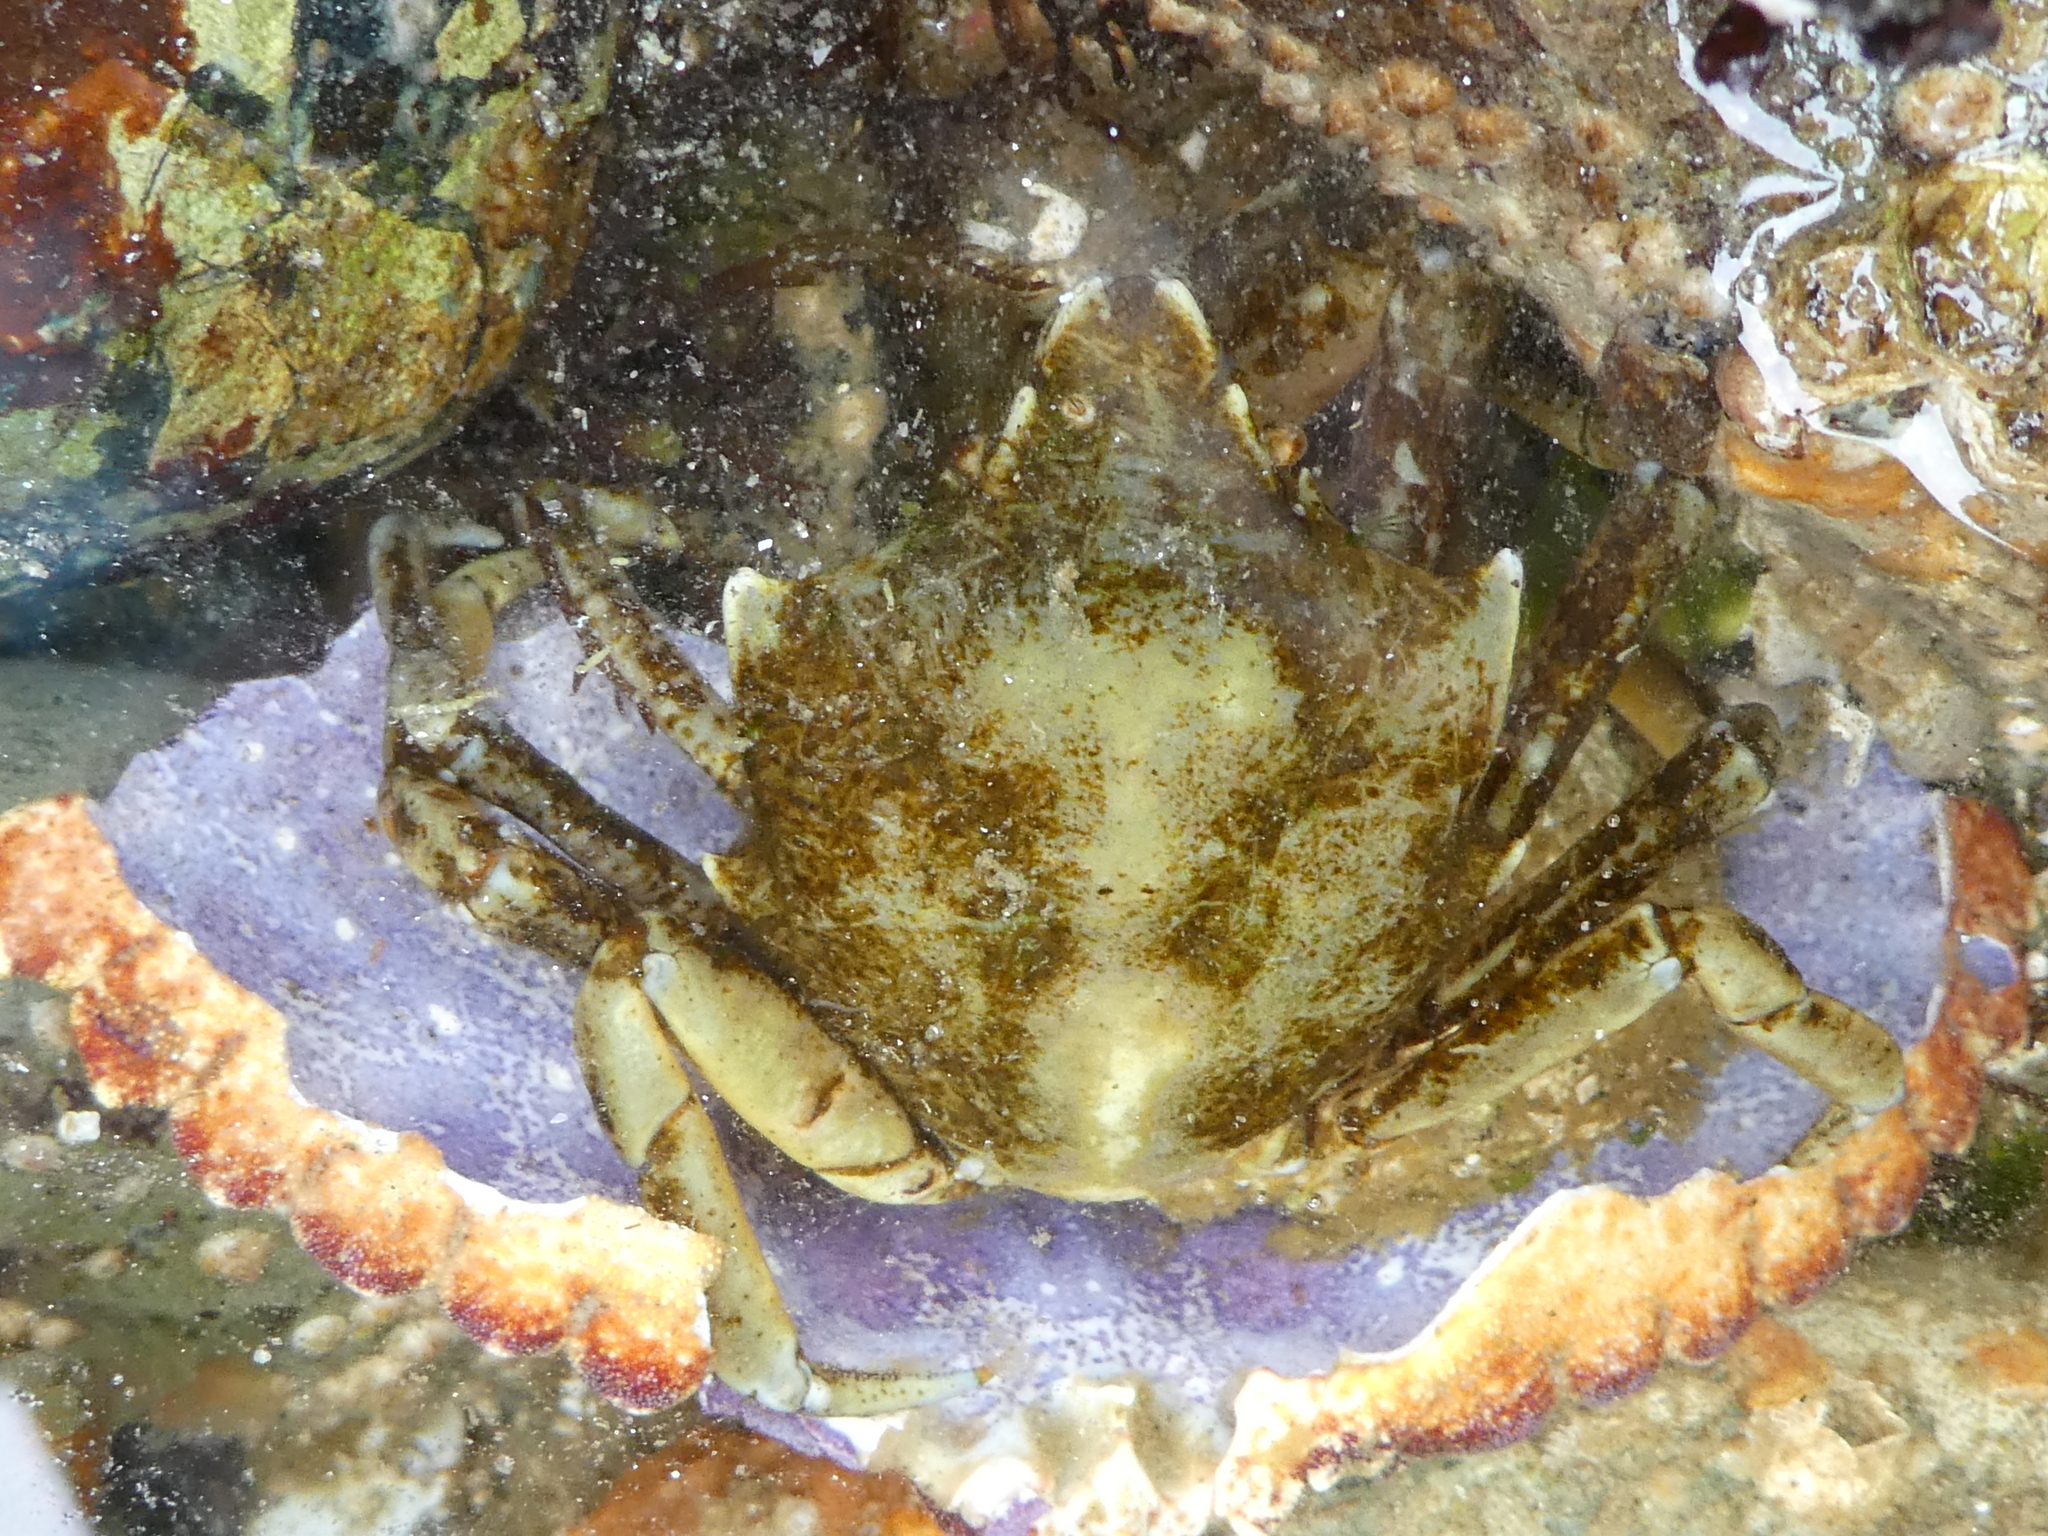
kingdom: Animalia
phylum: Arthropoda
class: Malacostraca
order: Decapoda
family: Epialtidae
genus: Pugettia
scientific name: Pugettia producta
